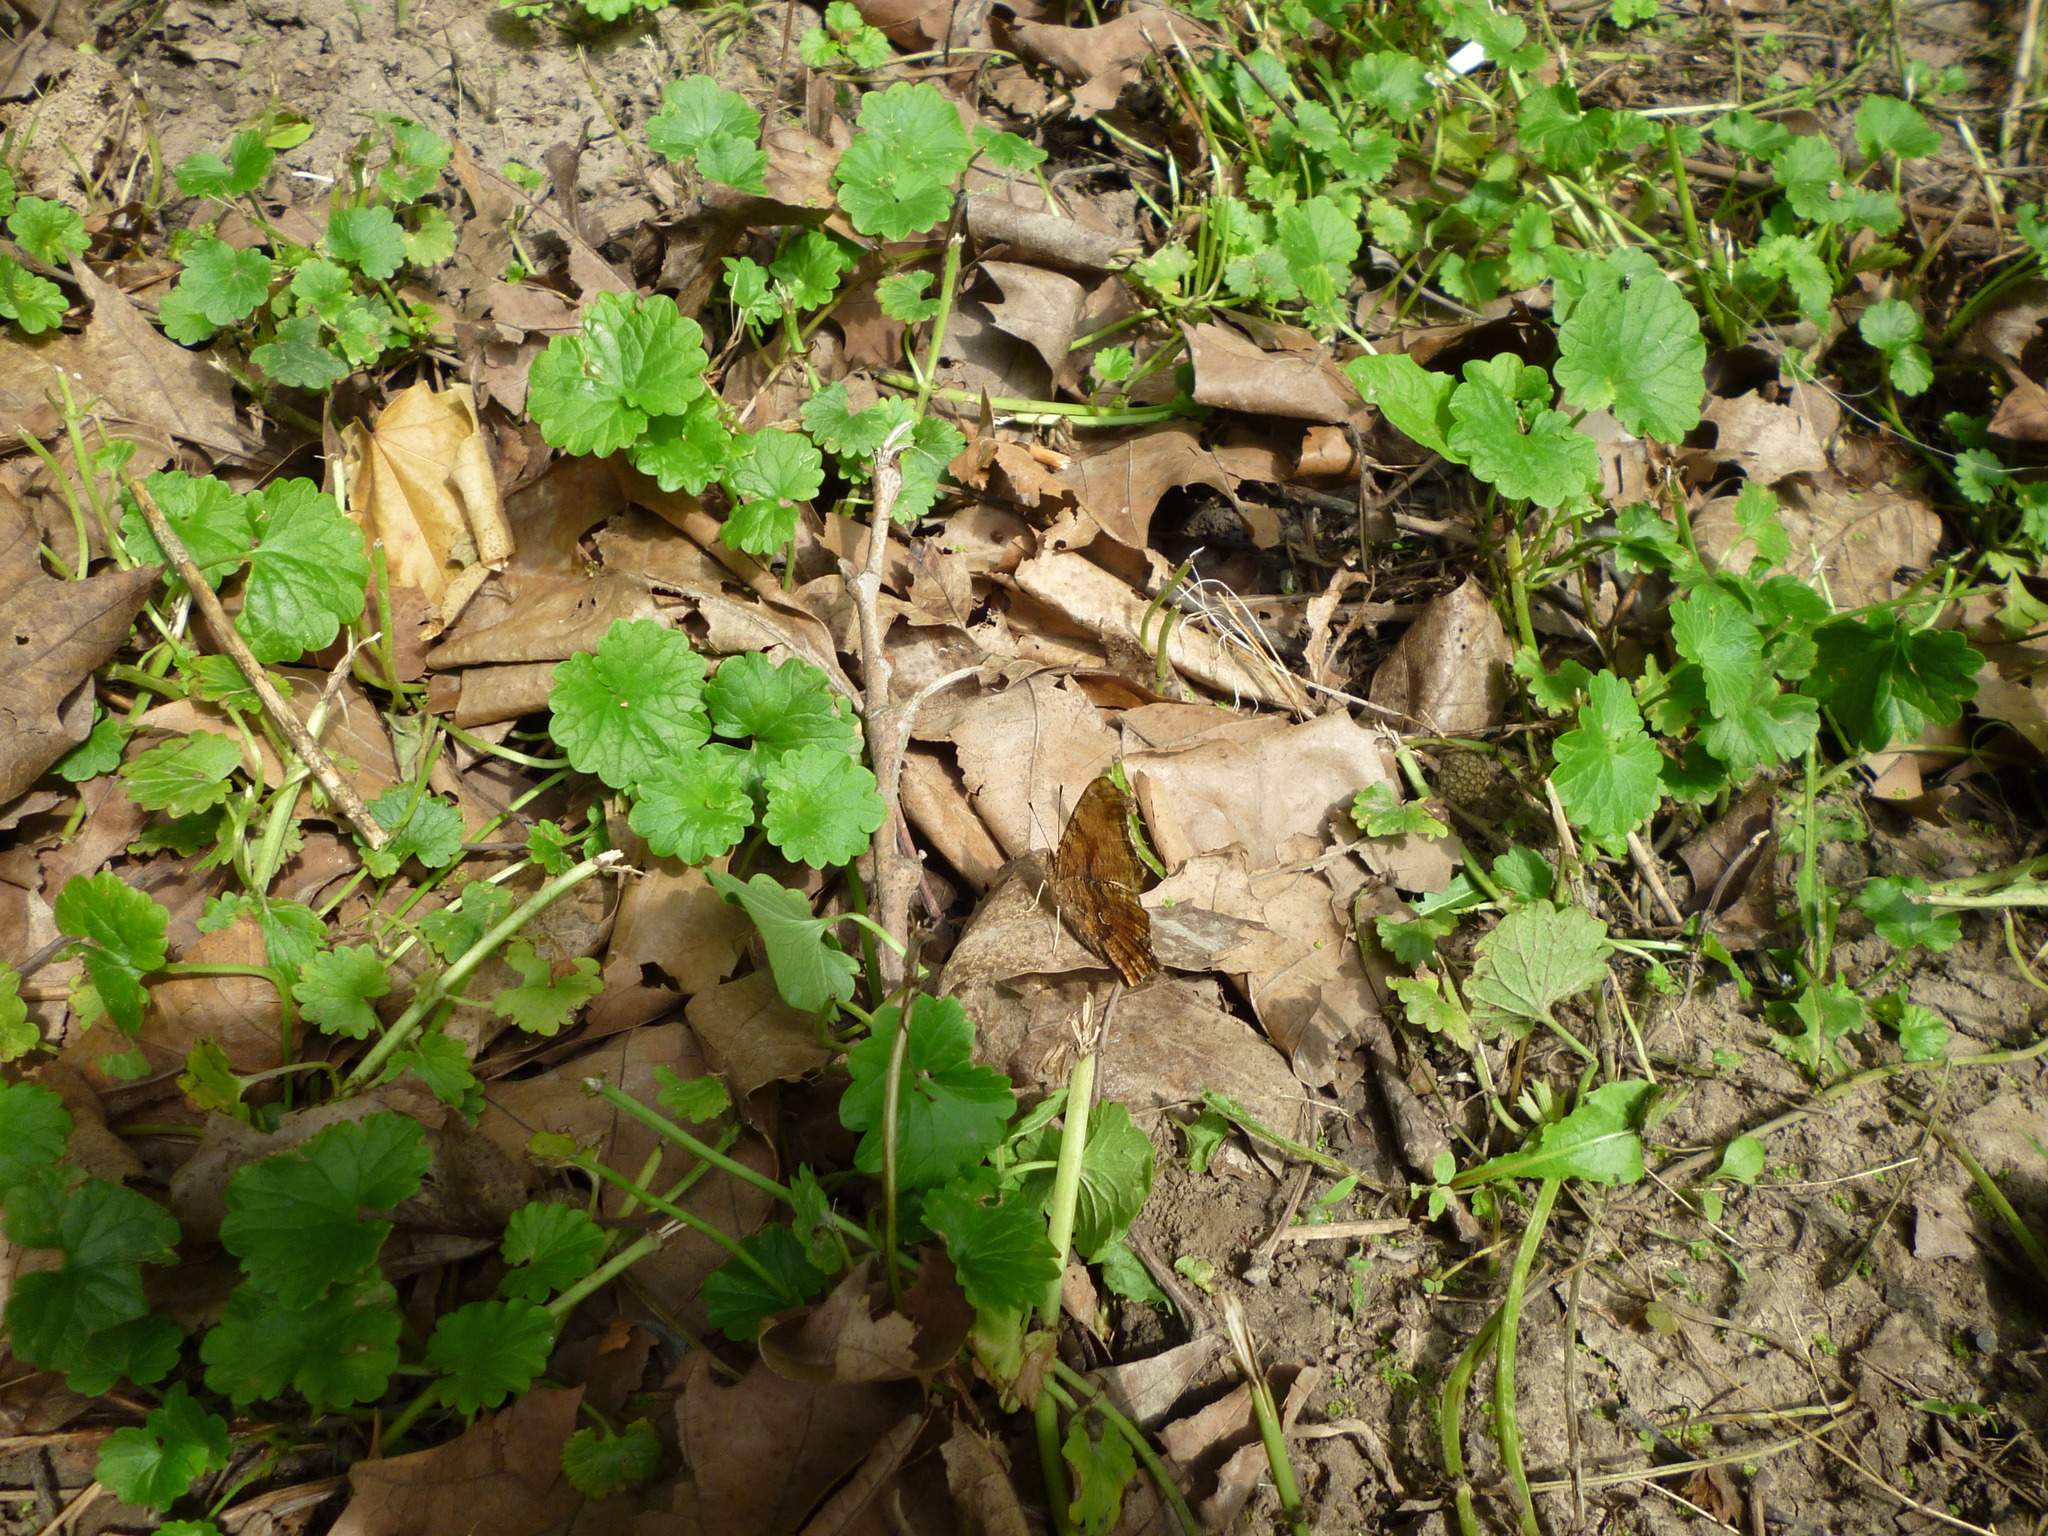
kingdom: Plantae
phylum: Tracheophyta
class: Magnoliopsida
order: Lamiales
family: Lamiaceae
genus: Glechoma
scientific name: Glechoma hederacea
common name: Ground ivy
